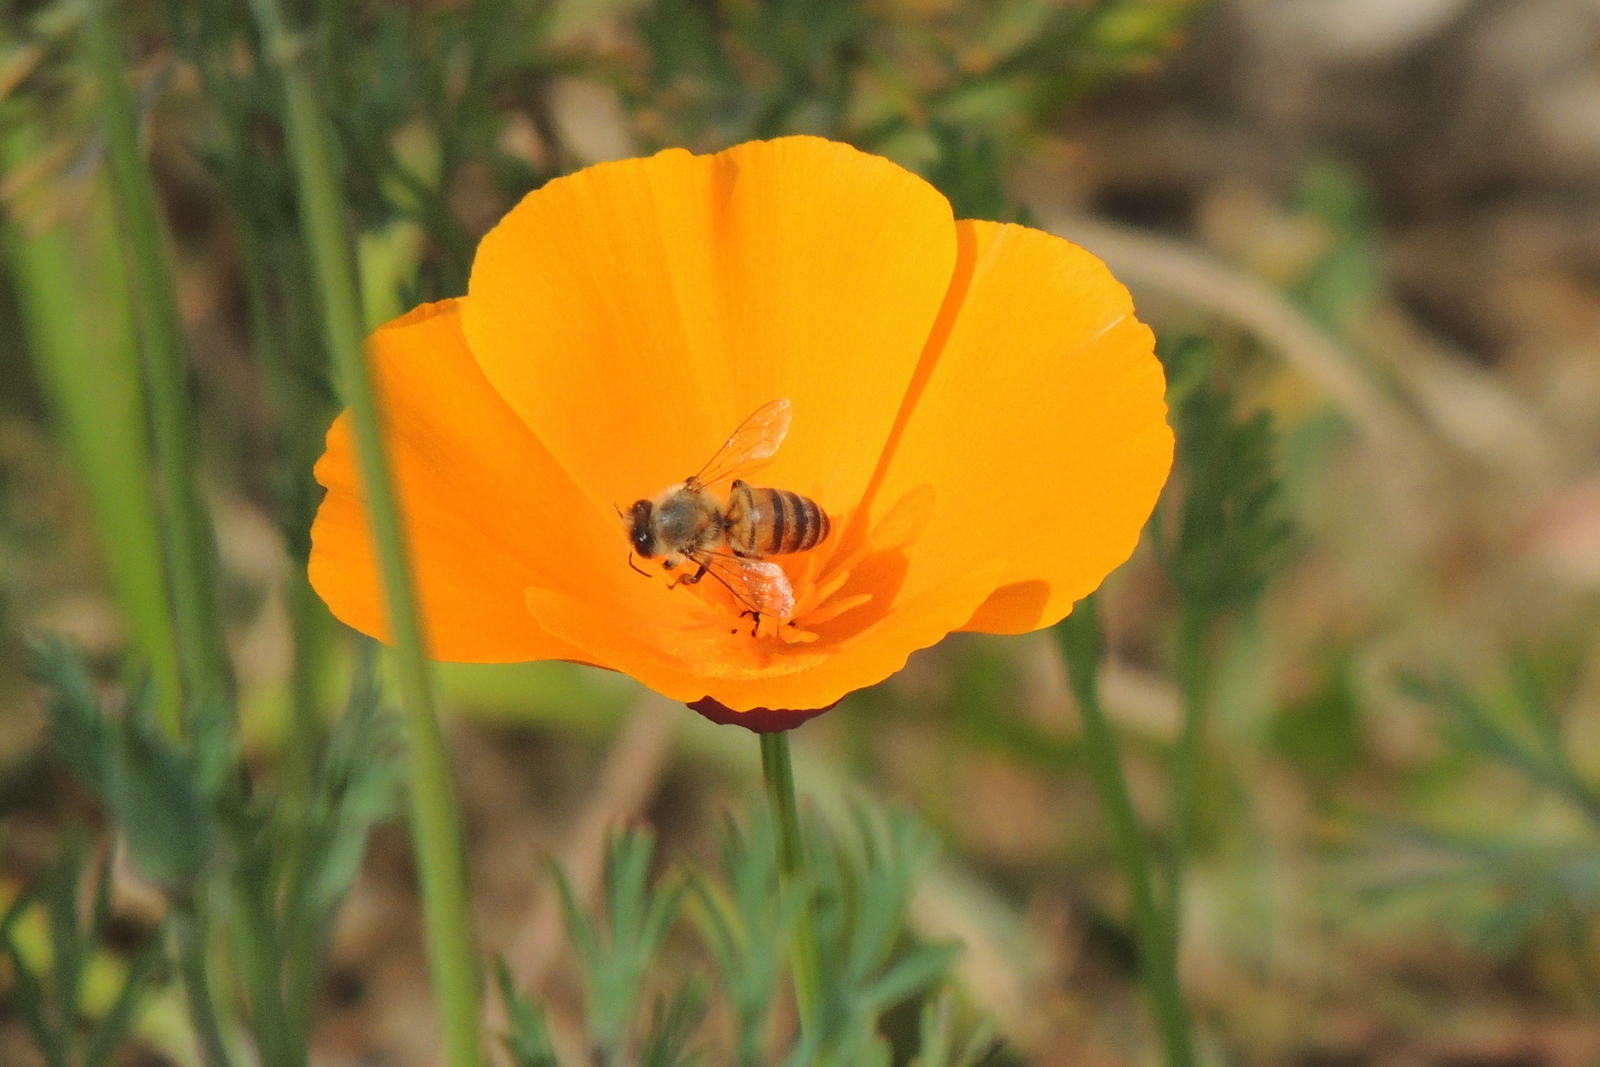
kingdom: Animalia
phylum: Arthropoda
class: Insecta
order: Hymenoptera
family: Apidae
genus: Apis
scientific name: Apis mellifera
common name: Honey bee
